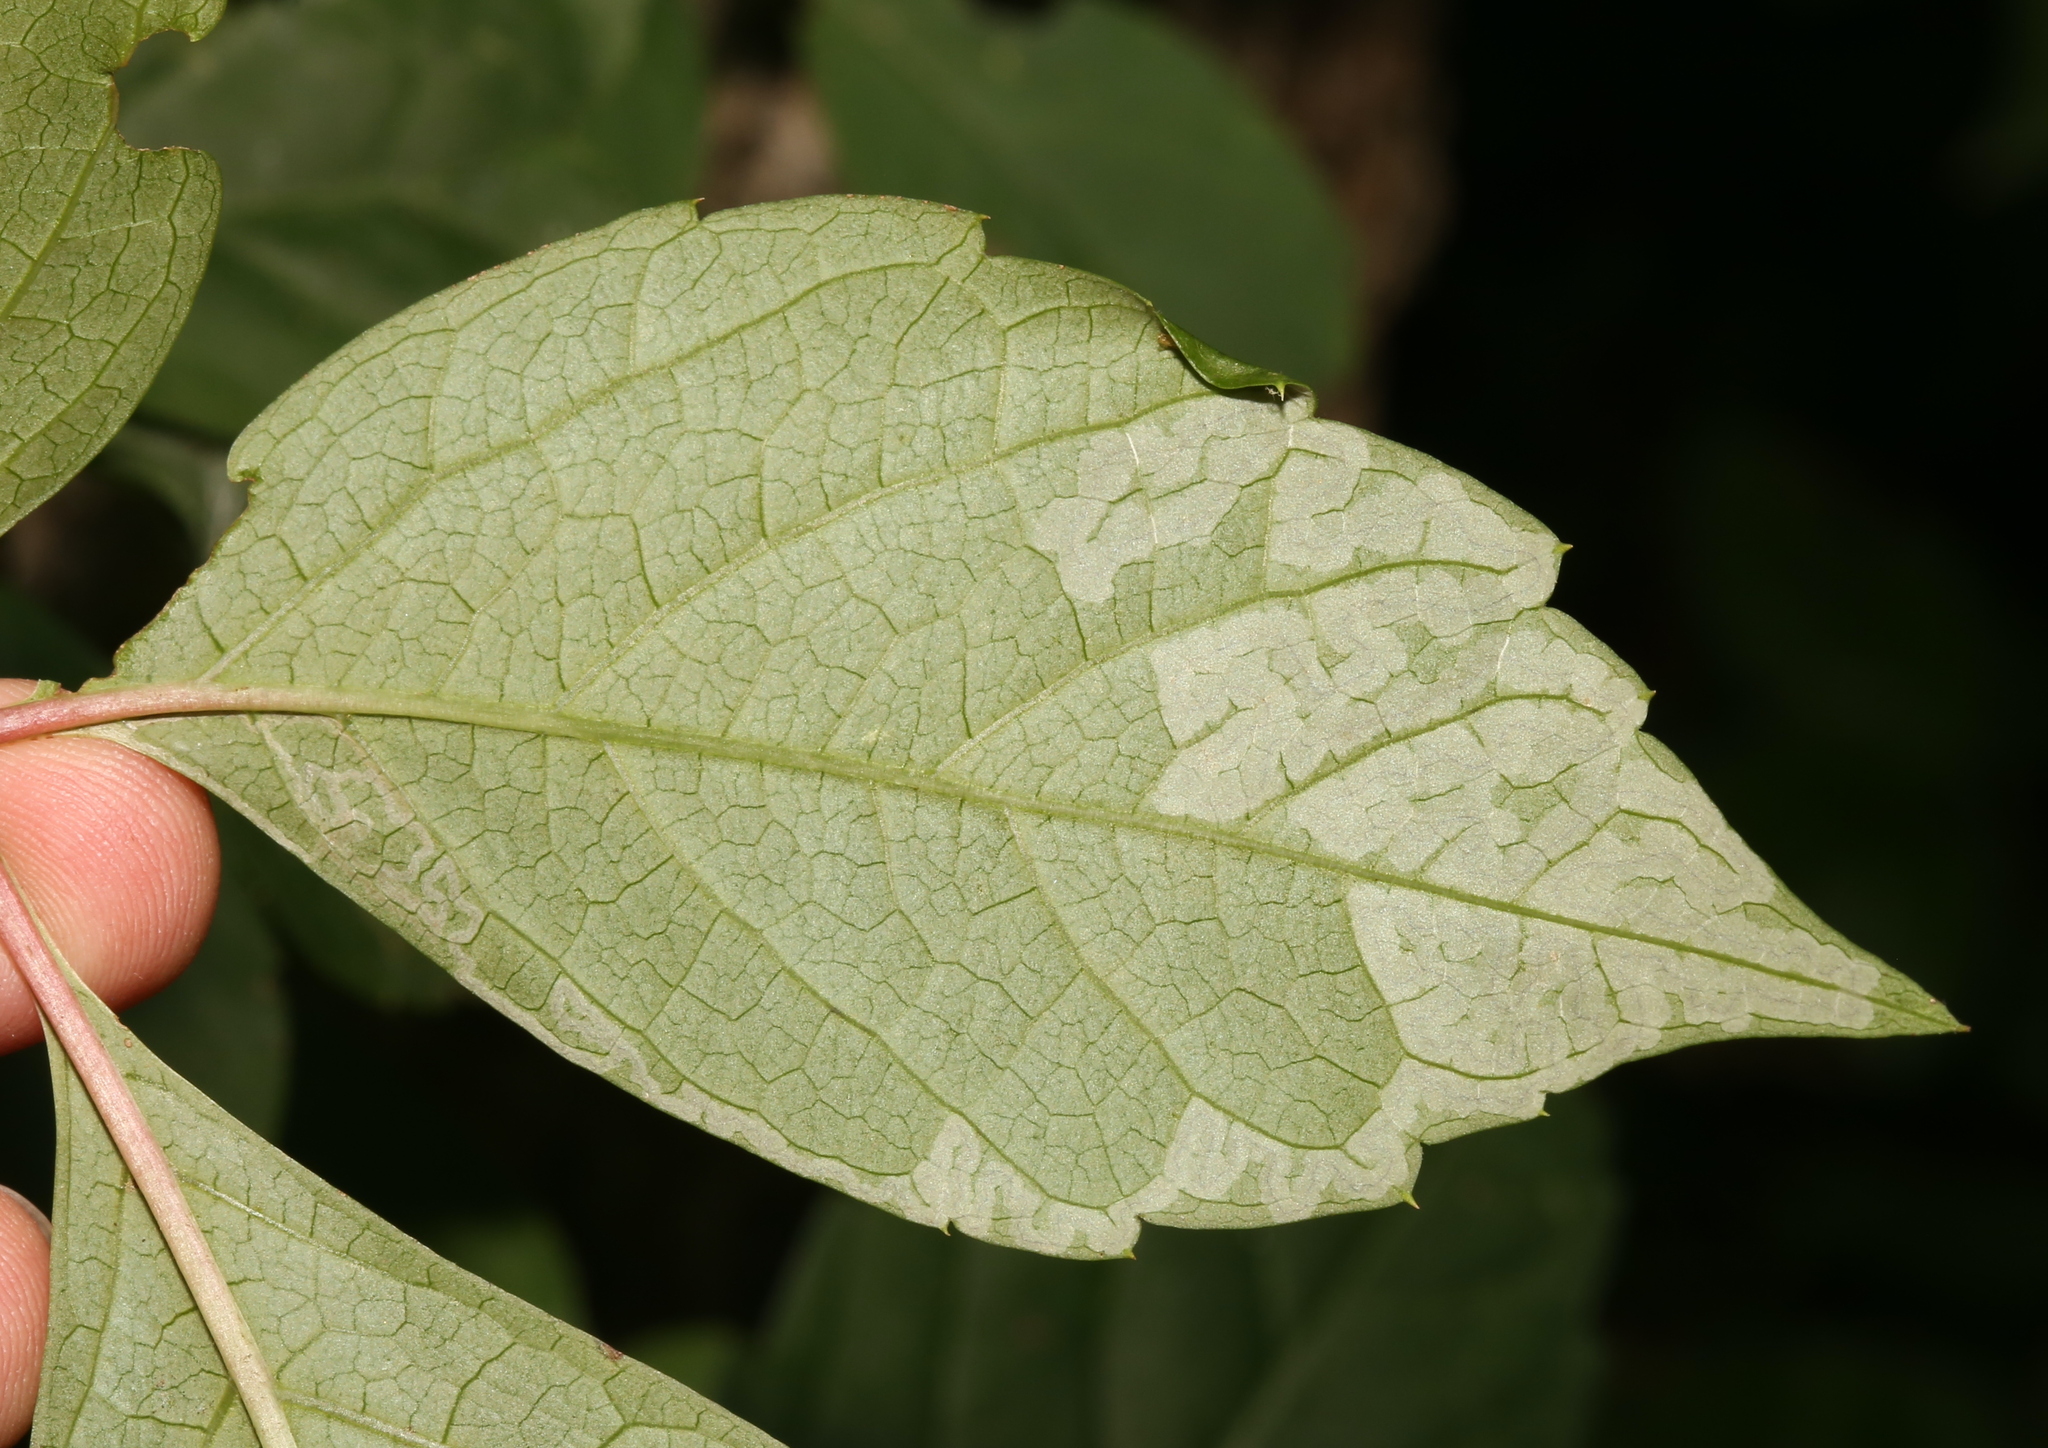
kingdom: Animalia
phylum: Arthropoda
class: Insecta
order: Lepidoptera
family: Gracillariidae
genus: Phyllocnistis
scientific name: Phyllocnistis ampelopsiella
